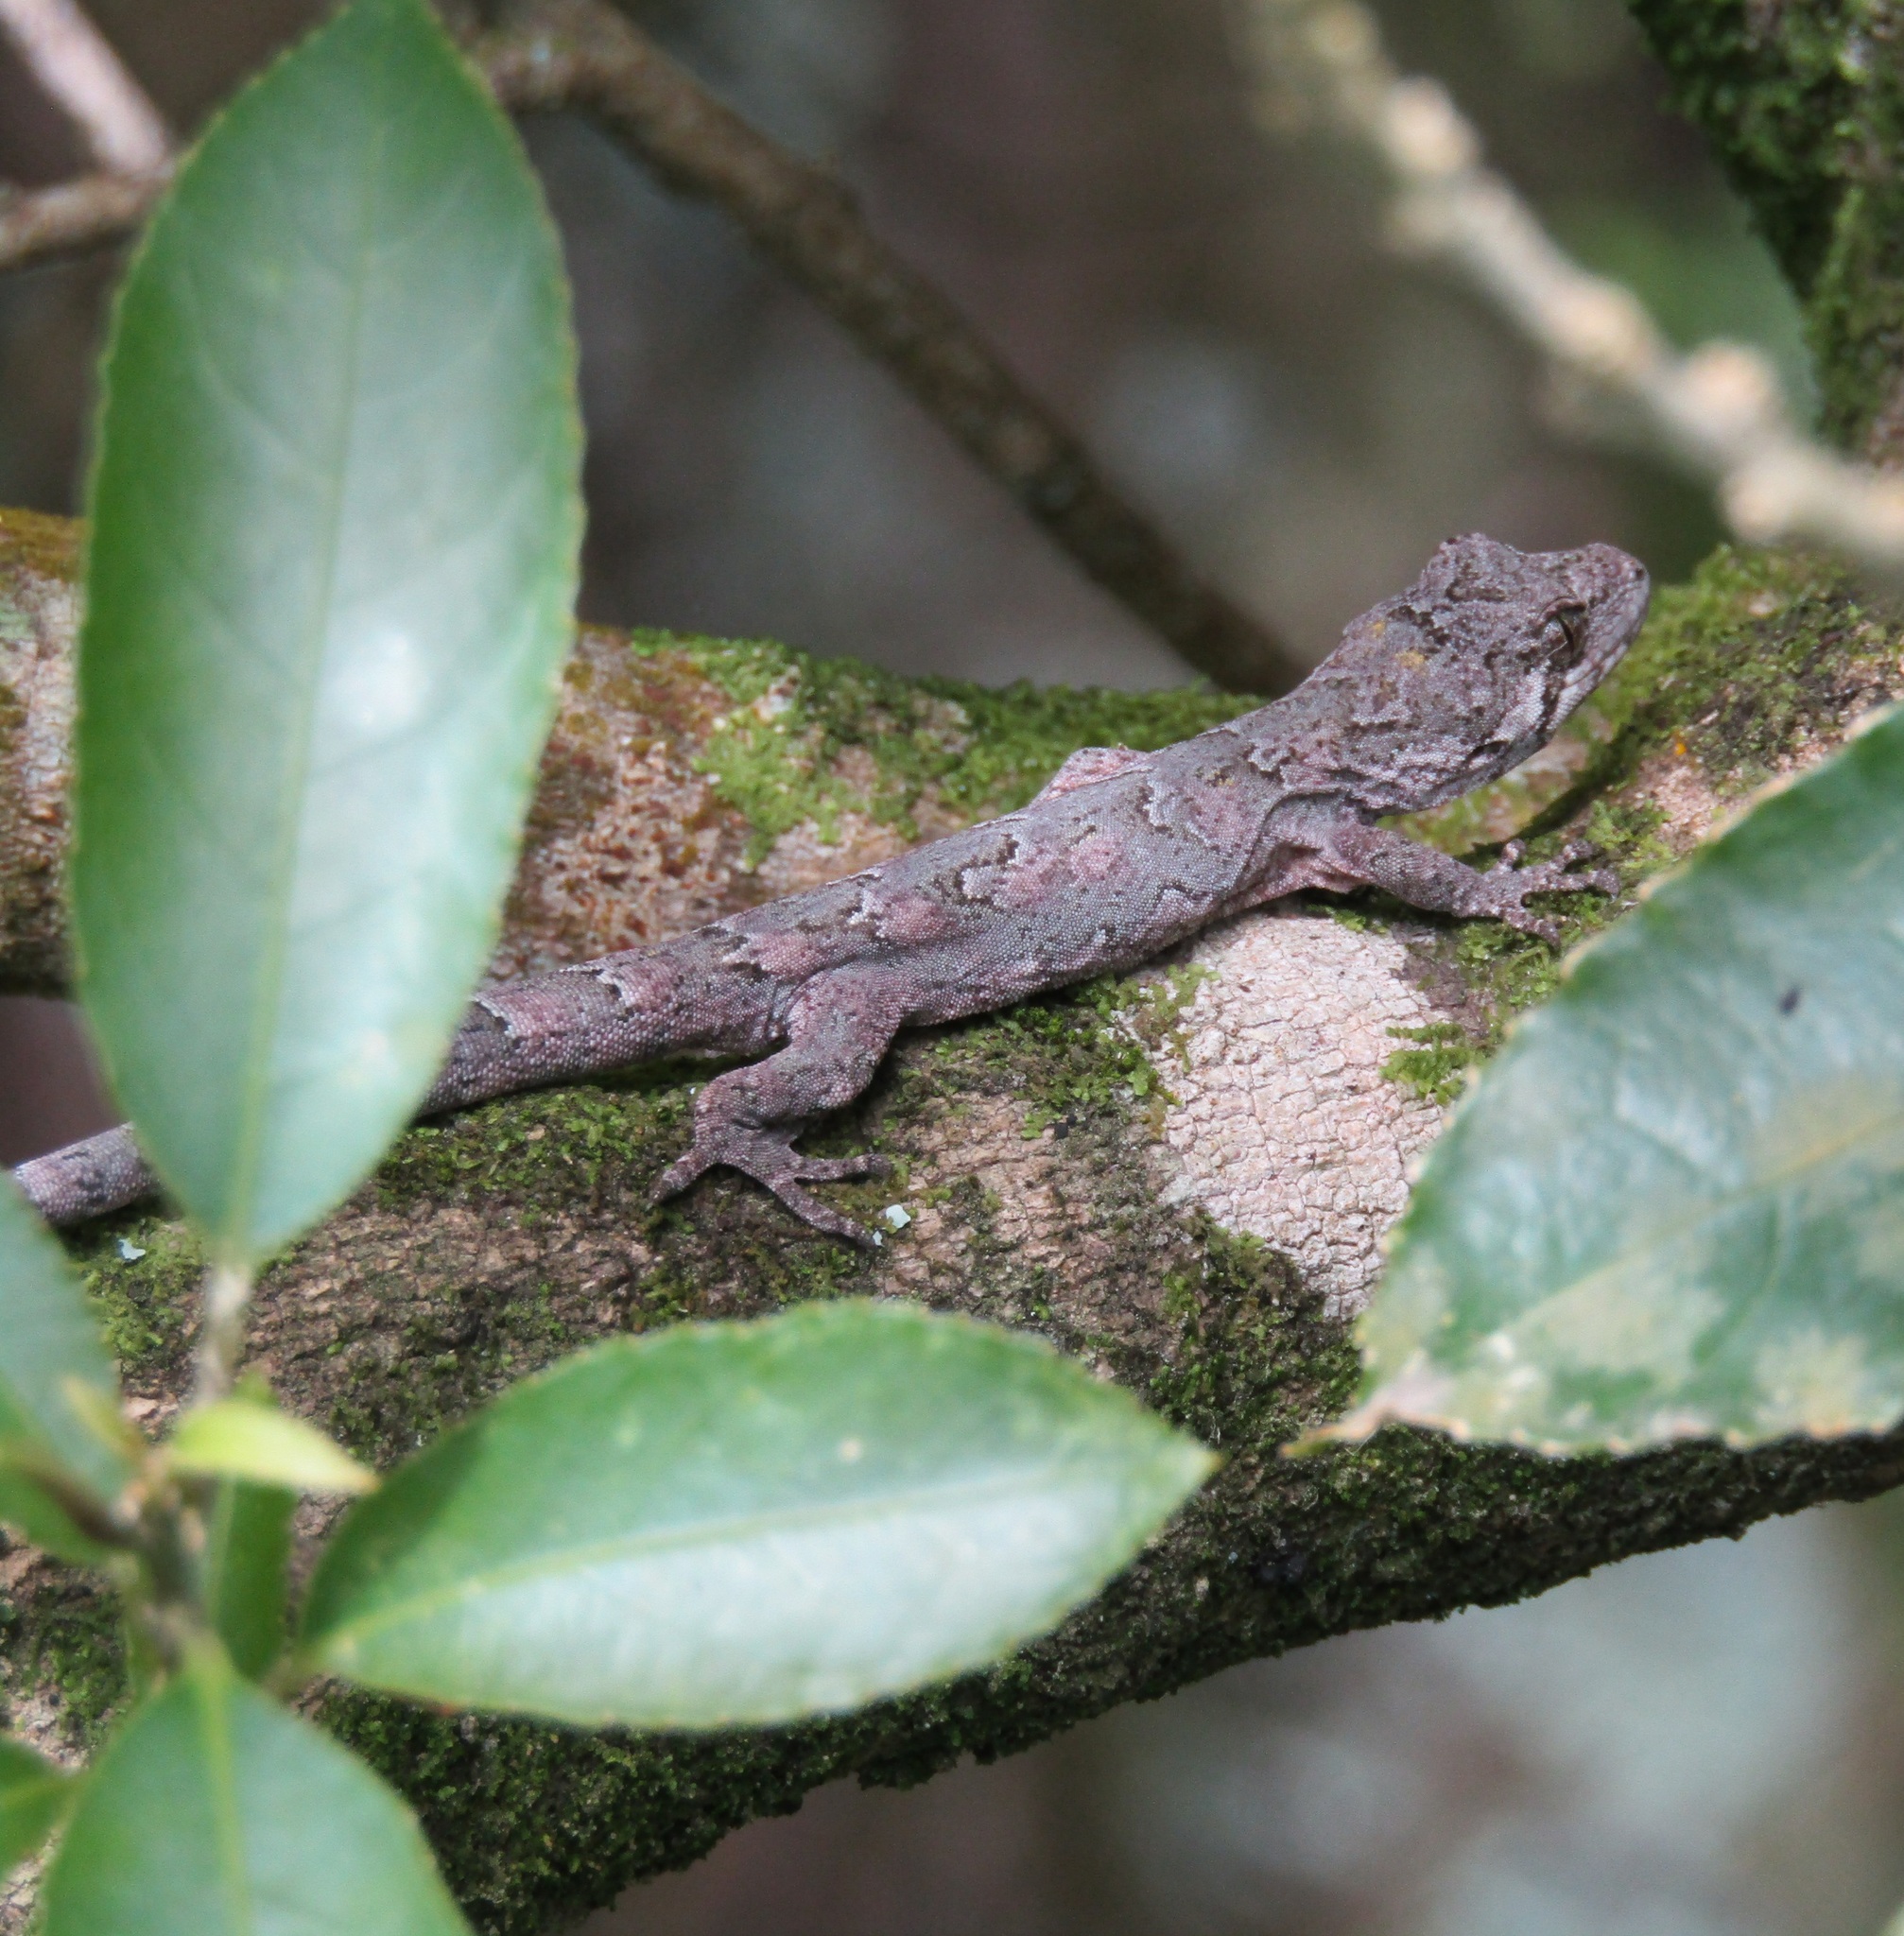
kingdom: Animalia
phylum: Chordata
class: Squamata
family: Diplodactylidae
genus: Mokopirirakau
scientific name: Mokopirirakau
